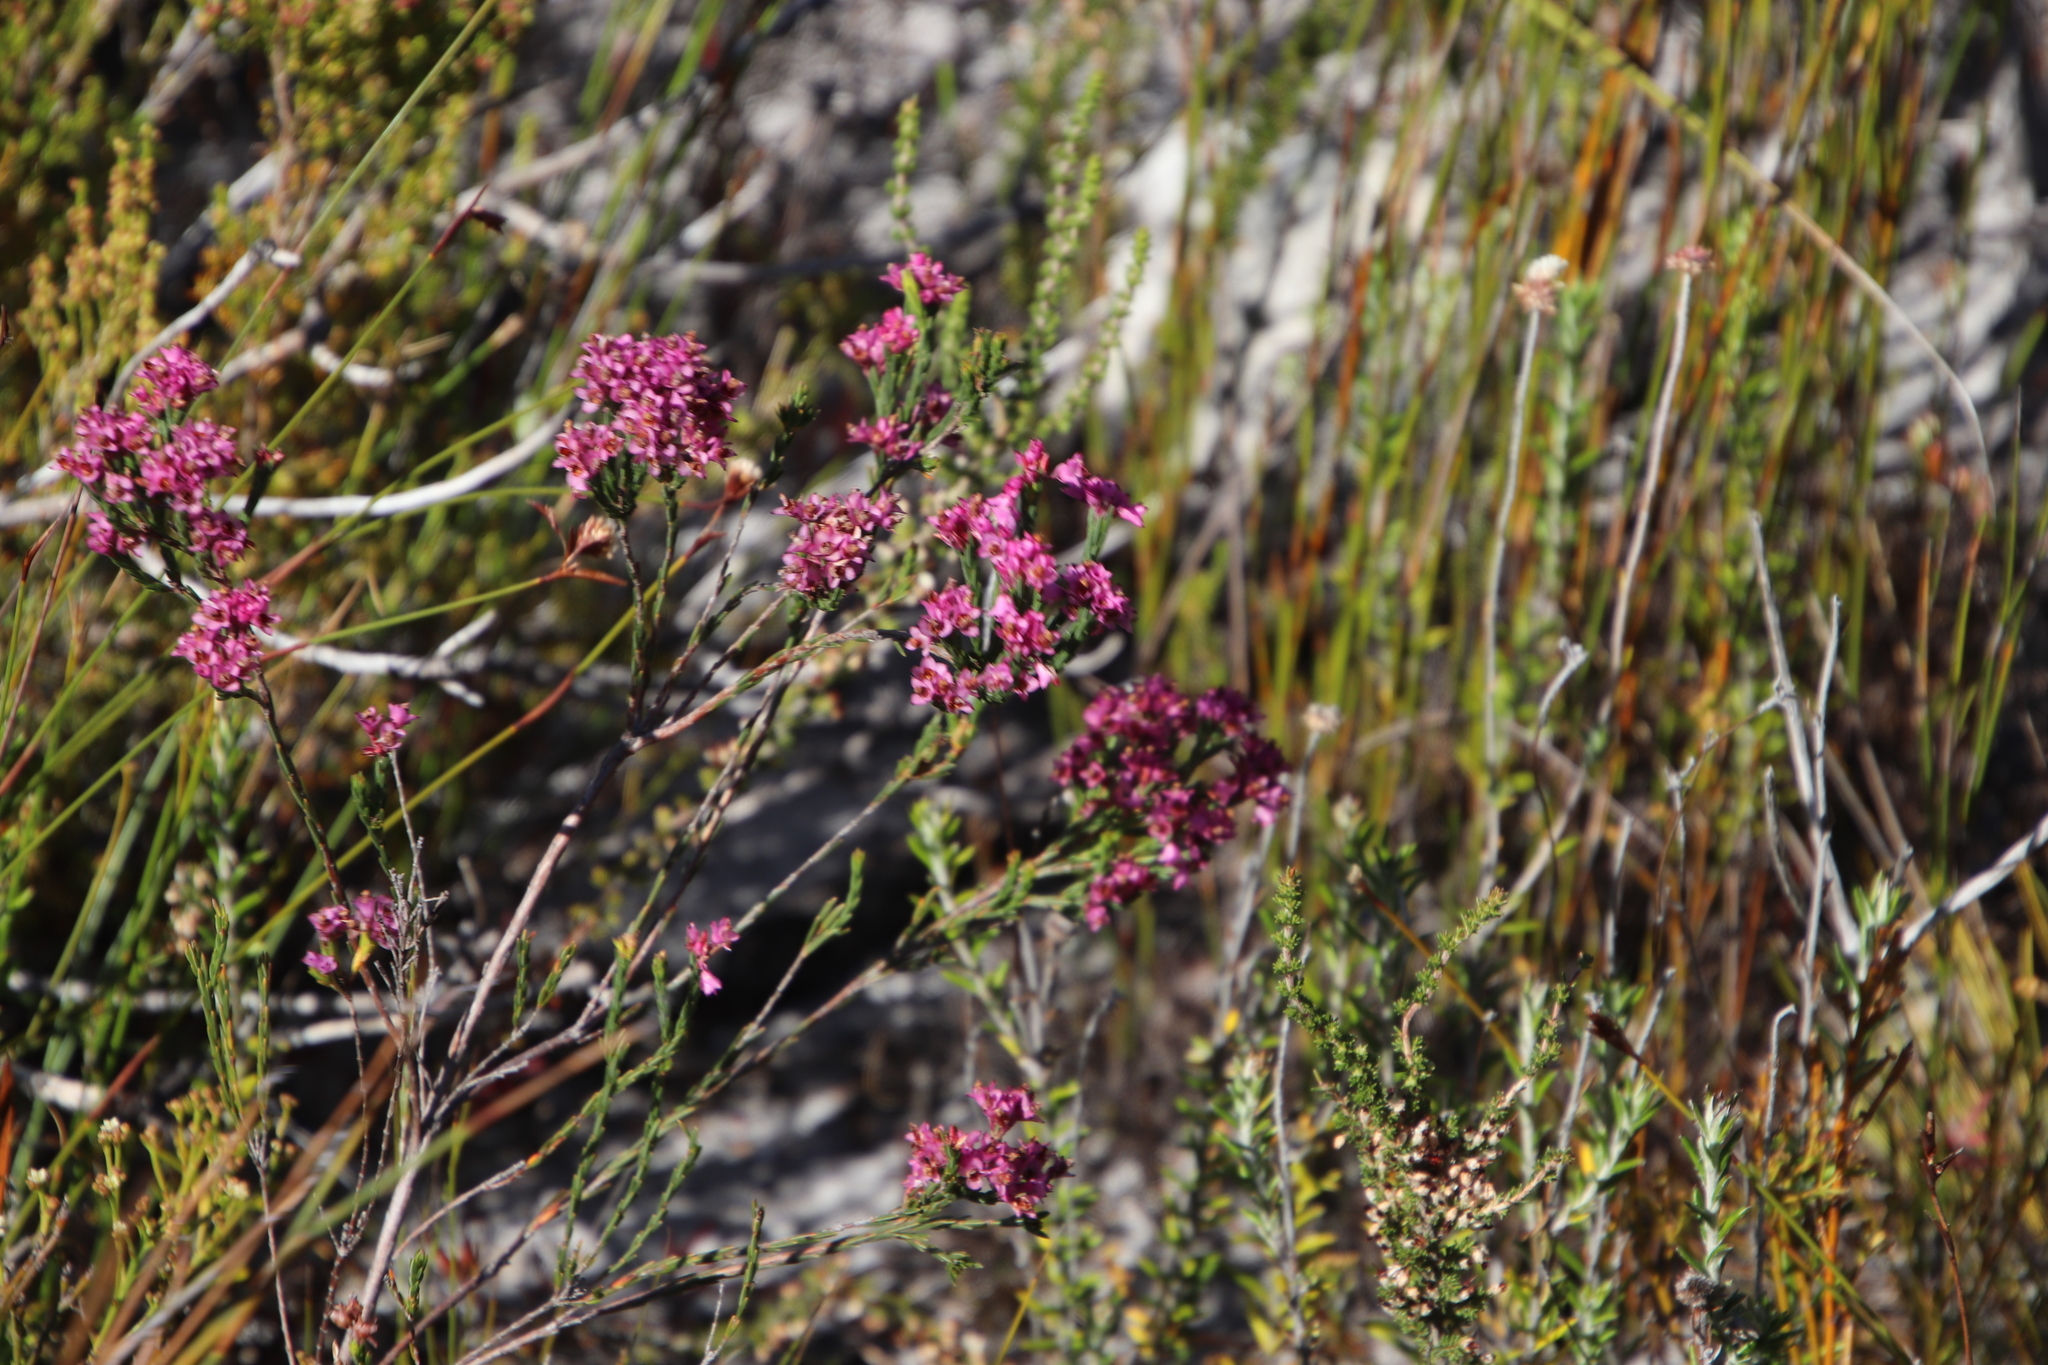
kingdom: Plantae
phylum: Tracheophyta
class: Magnoliopsida
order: Ericales
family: Ericaceae
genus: Erica
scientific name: Erica corifolia
